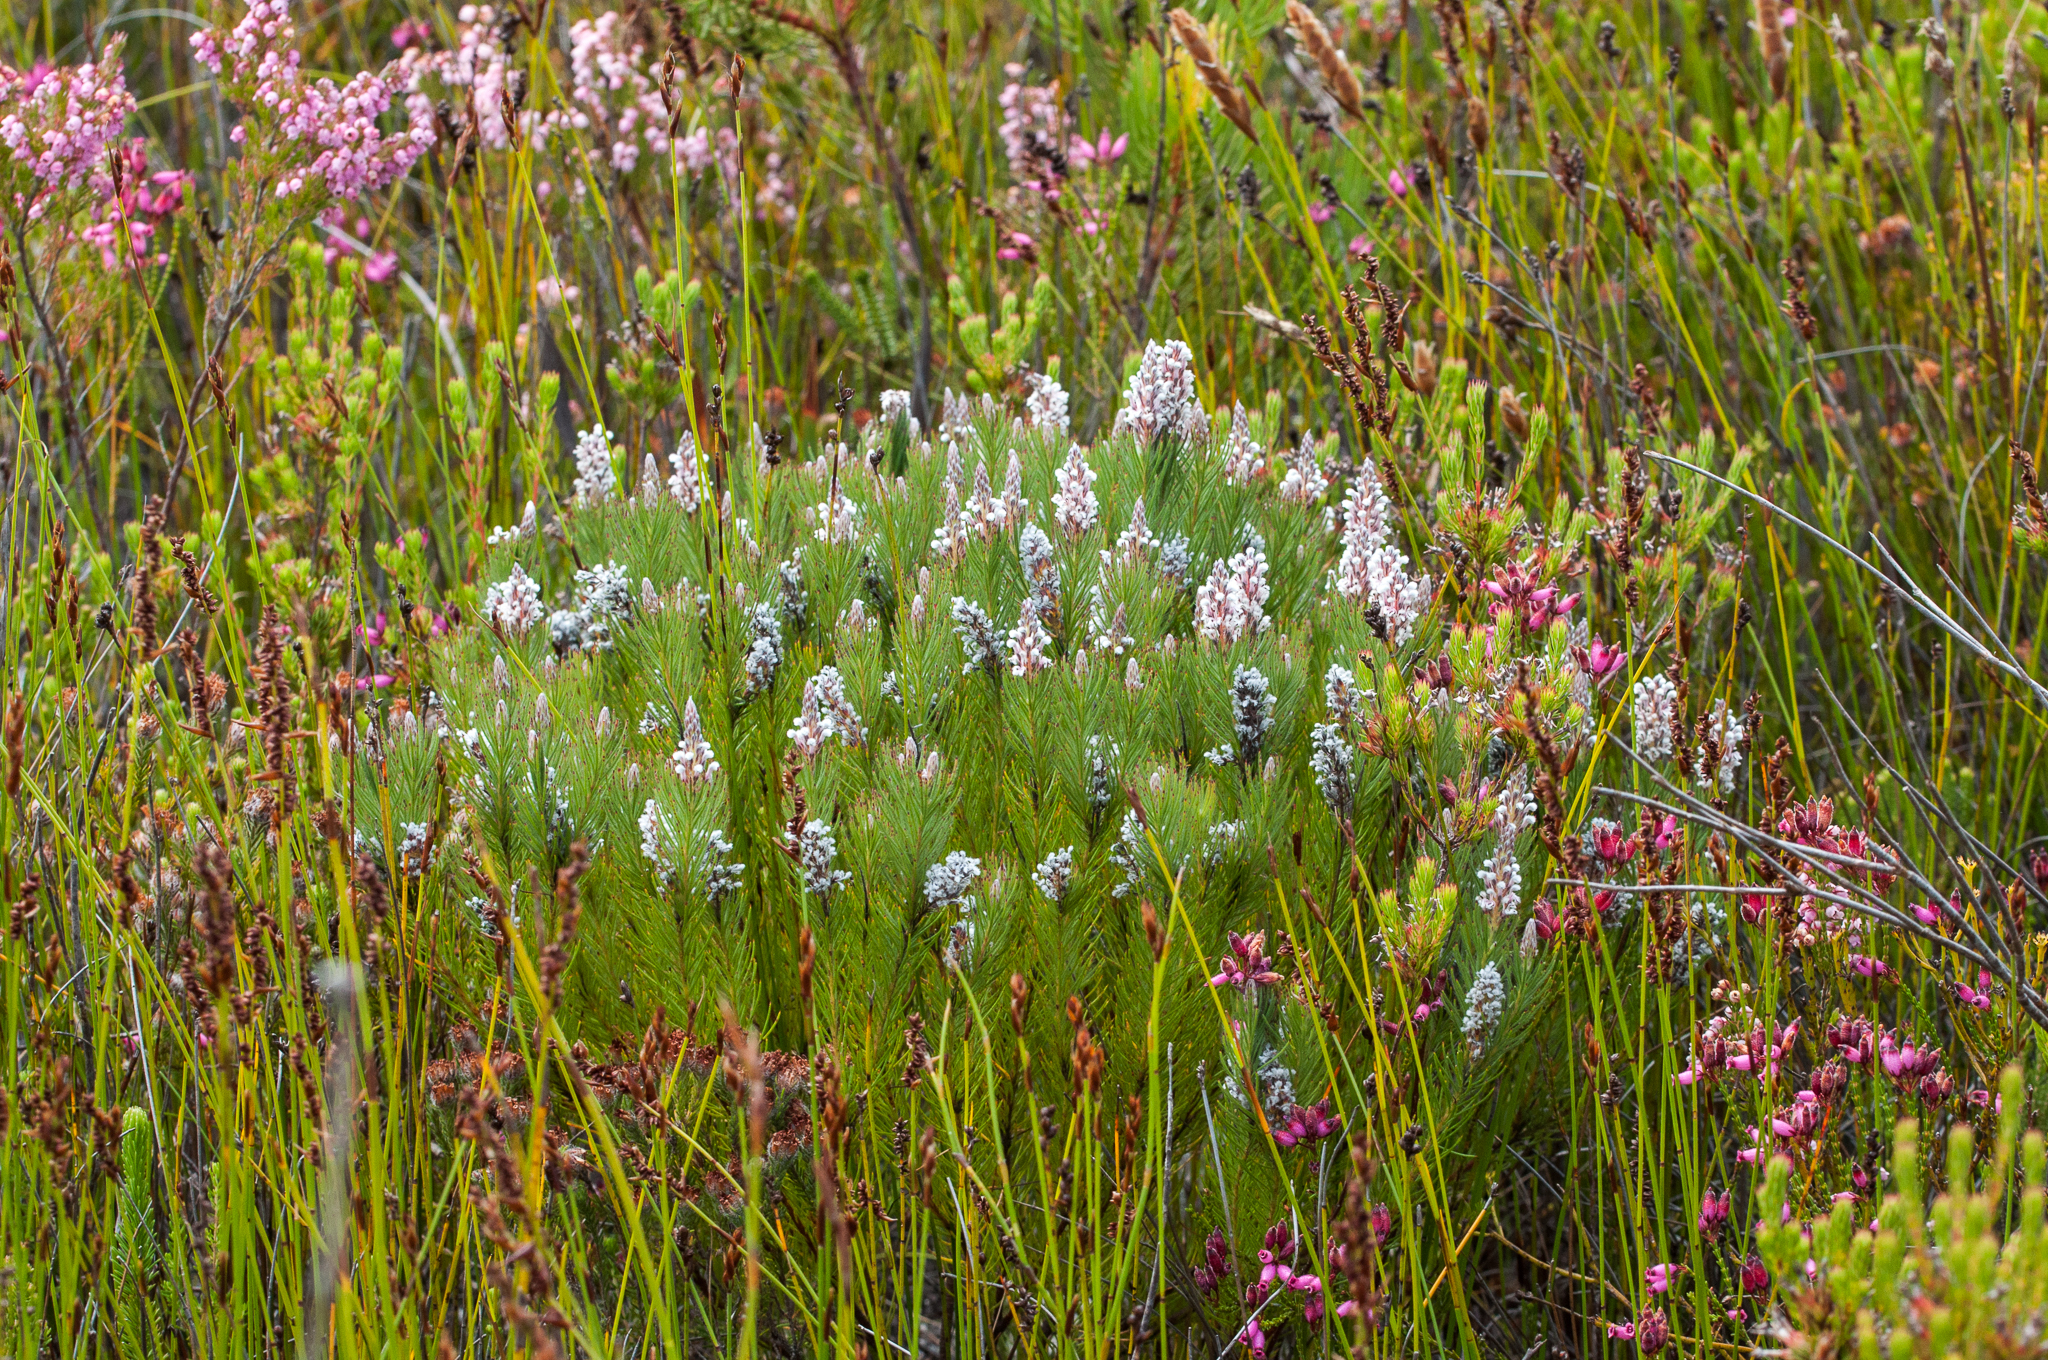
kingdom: Plantae
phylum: Tracheophyta
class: Magnoliopsida
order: Proteales
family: Proteaceae
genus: Spatalla
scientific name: Spatalla mollis
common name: Woolly spoon
